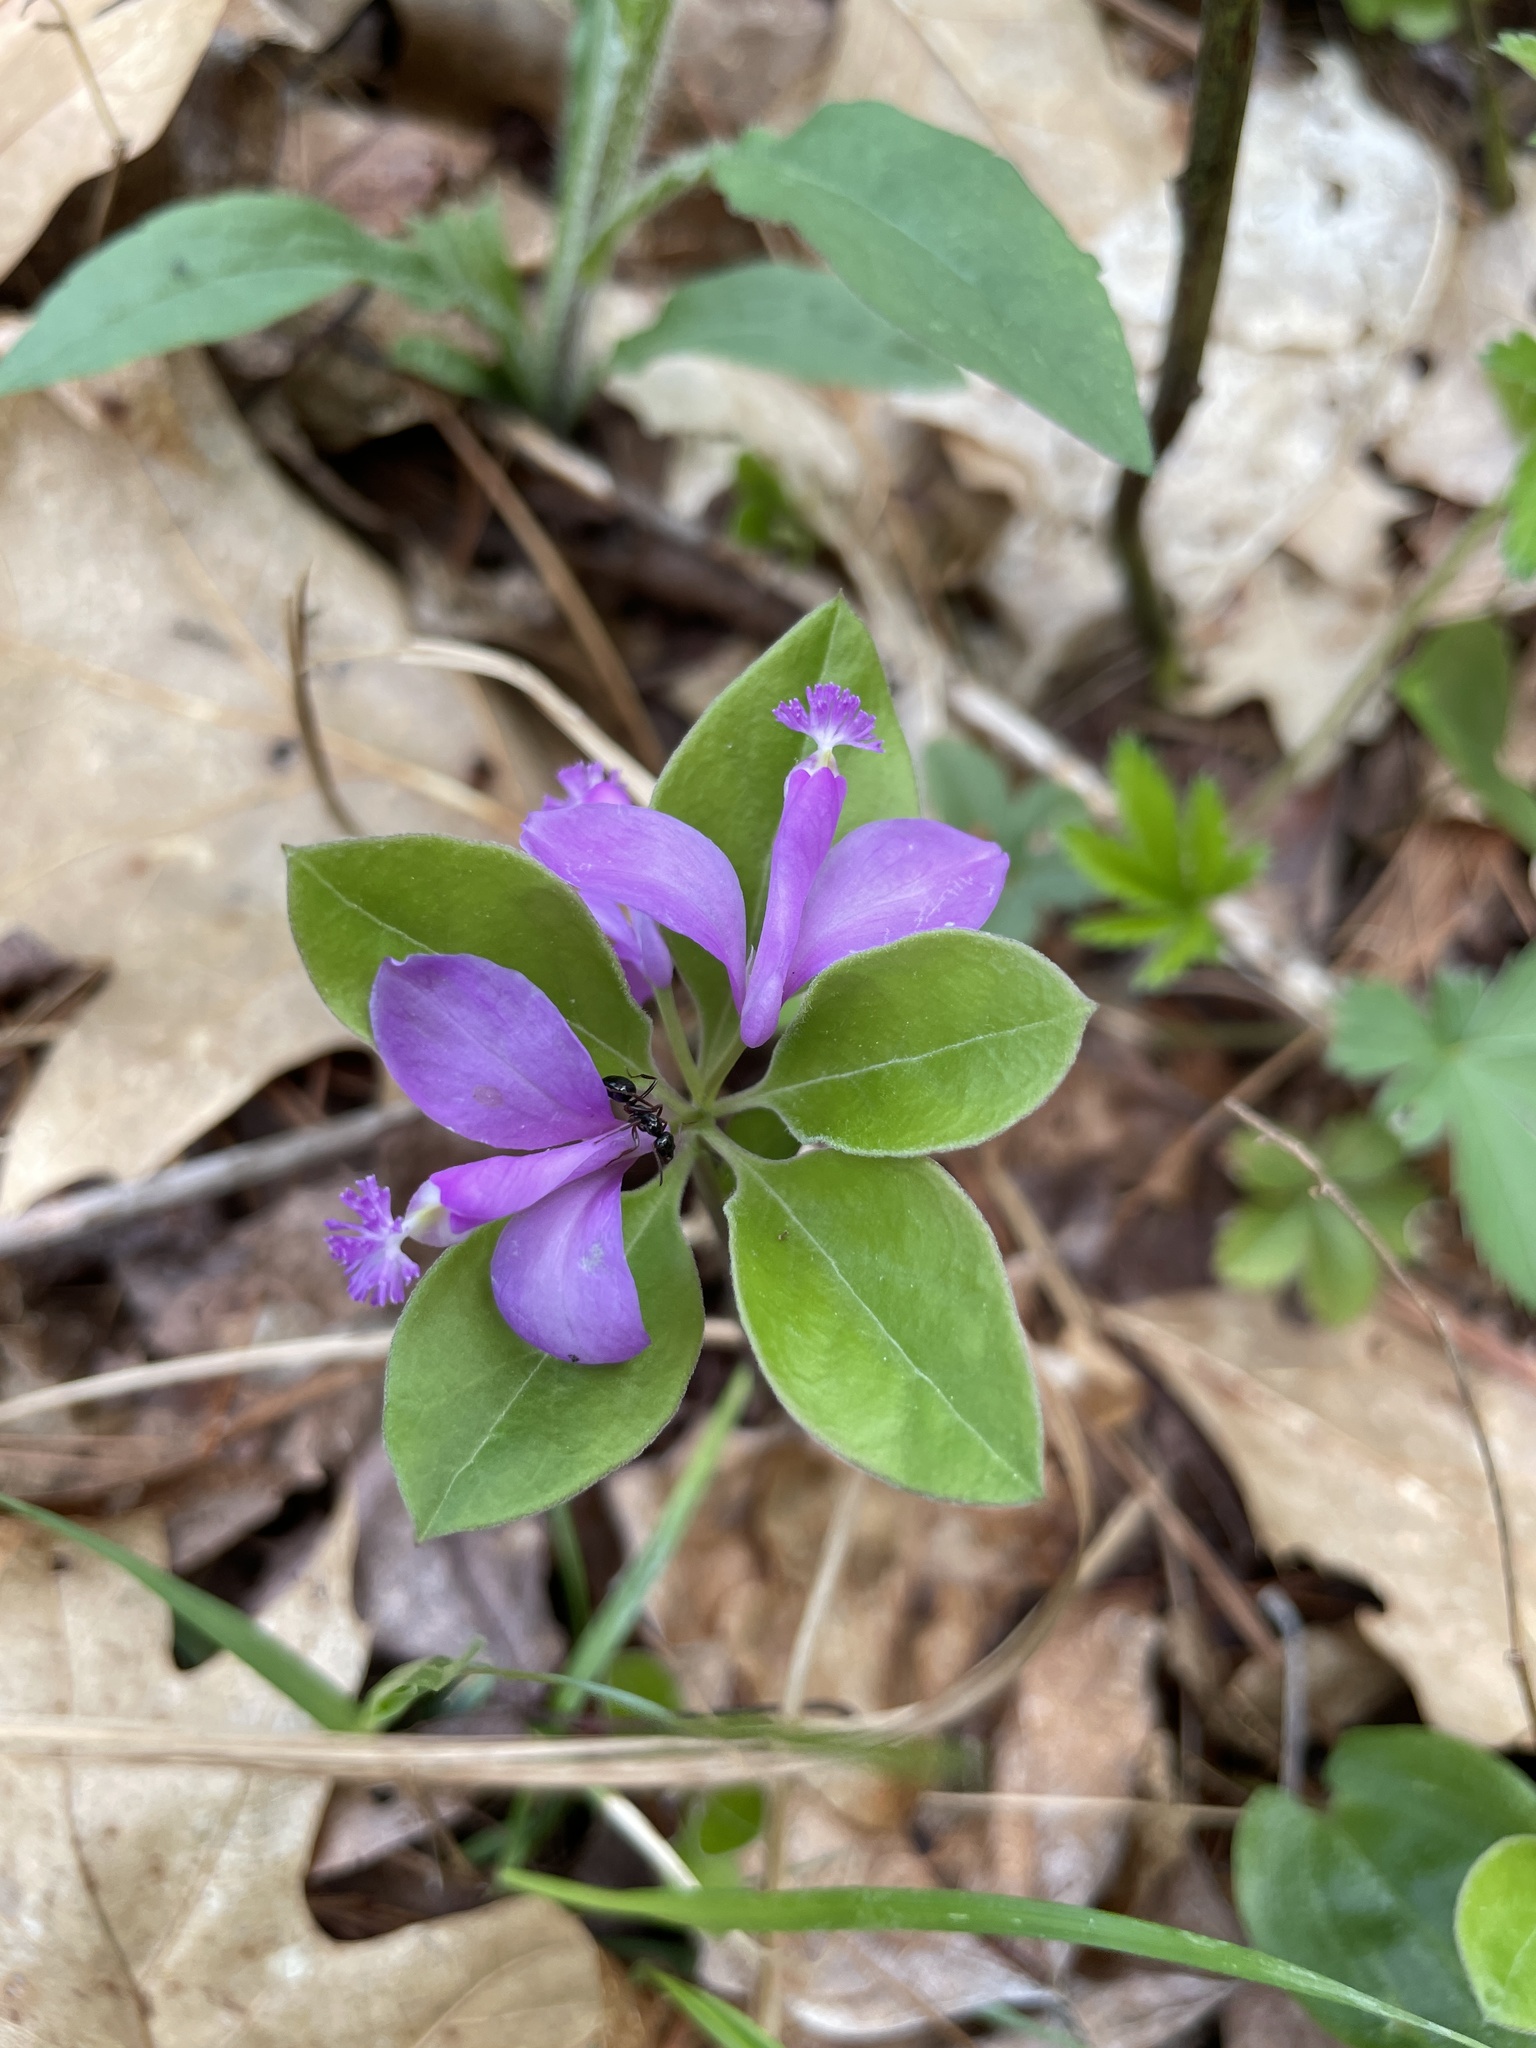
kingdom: Plantae
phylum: Tracheophyta
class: Magnoliopsida
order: Fabales
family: Polygalaceae
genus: Polygaloides
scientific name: Polygaloides paucifolia
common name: Bird-on-the-wing
